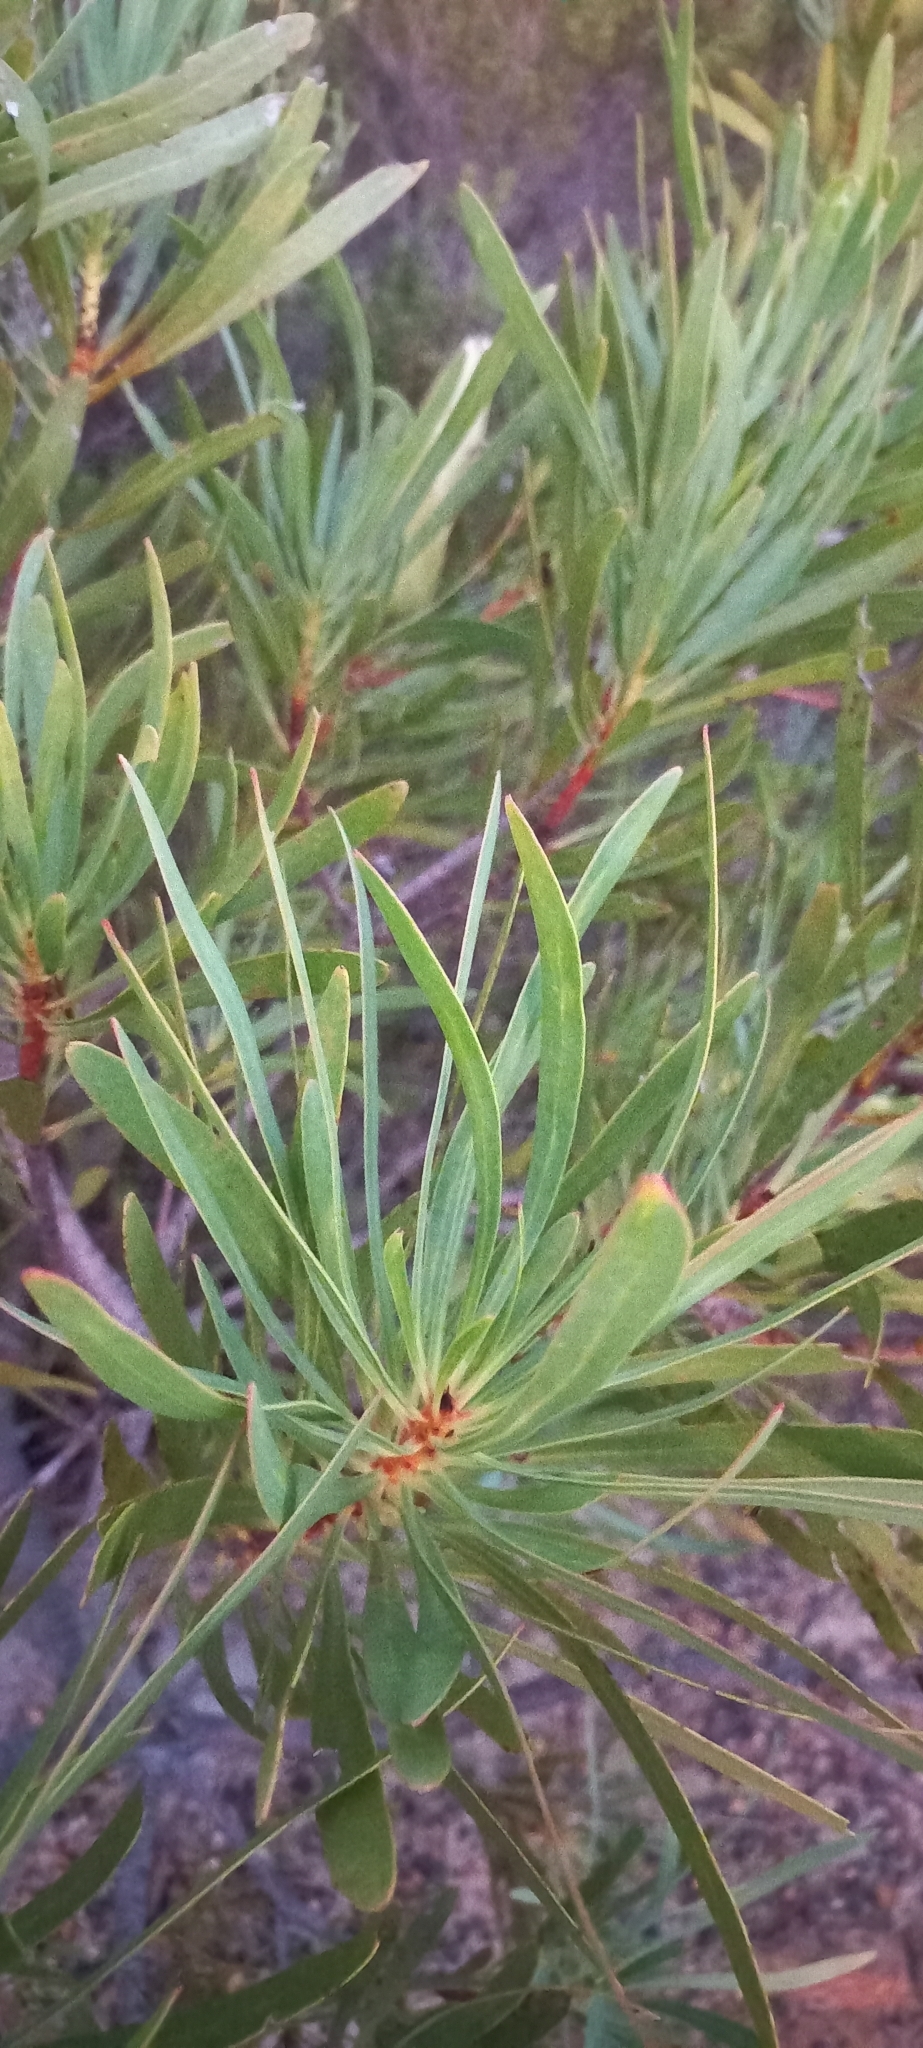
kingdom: Plantae
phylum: Tracheophyta
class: Magnoliopsida
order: Proteales
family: Proteaceae
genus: Protea
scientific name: Protea repens
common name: Sugarbush
